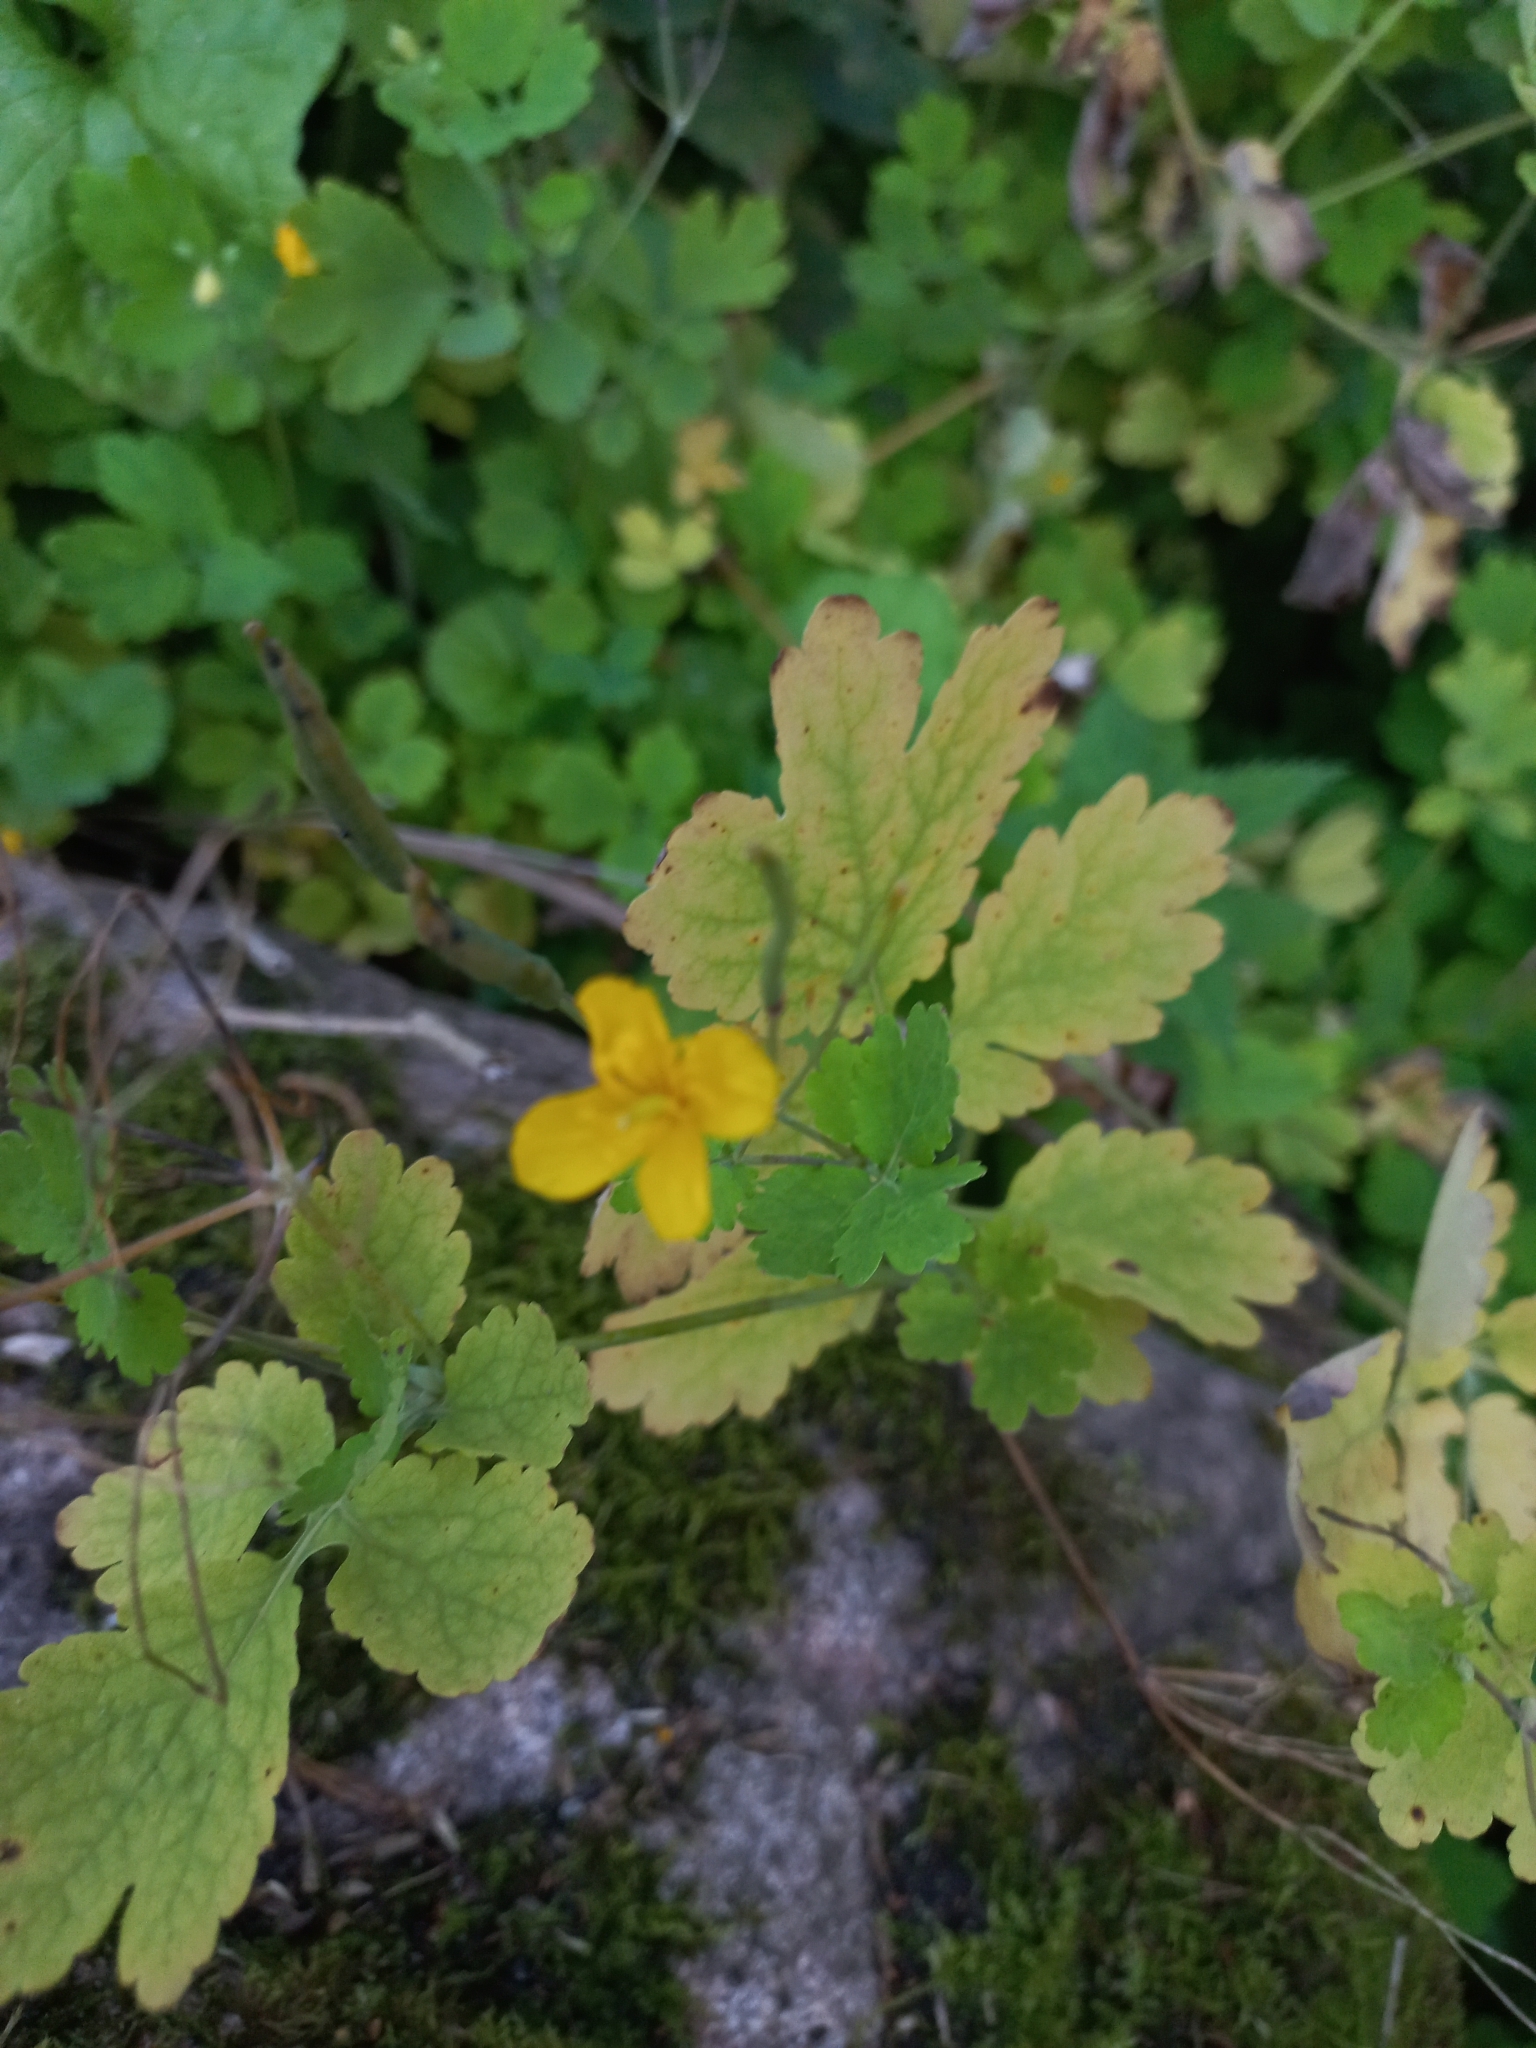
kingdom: Plantae
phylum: Tracheophyta
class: Magnoliopsida
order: Ranunculales
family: Papaveraceae
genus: Chelidonium
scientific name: Chelidonium majus
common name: Greater celandine
